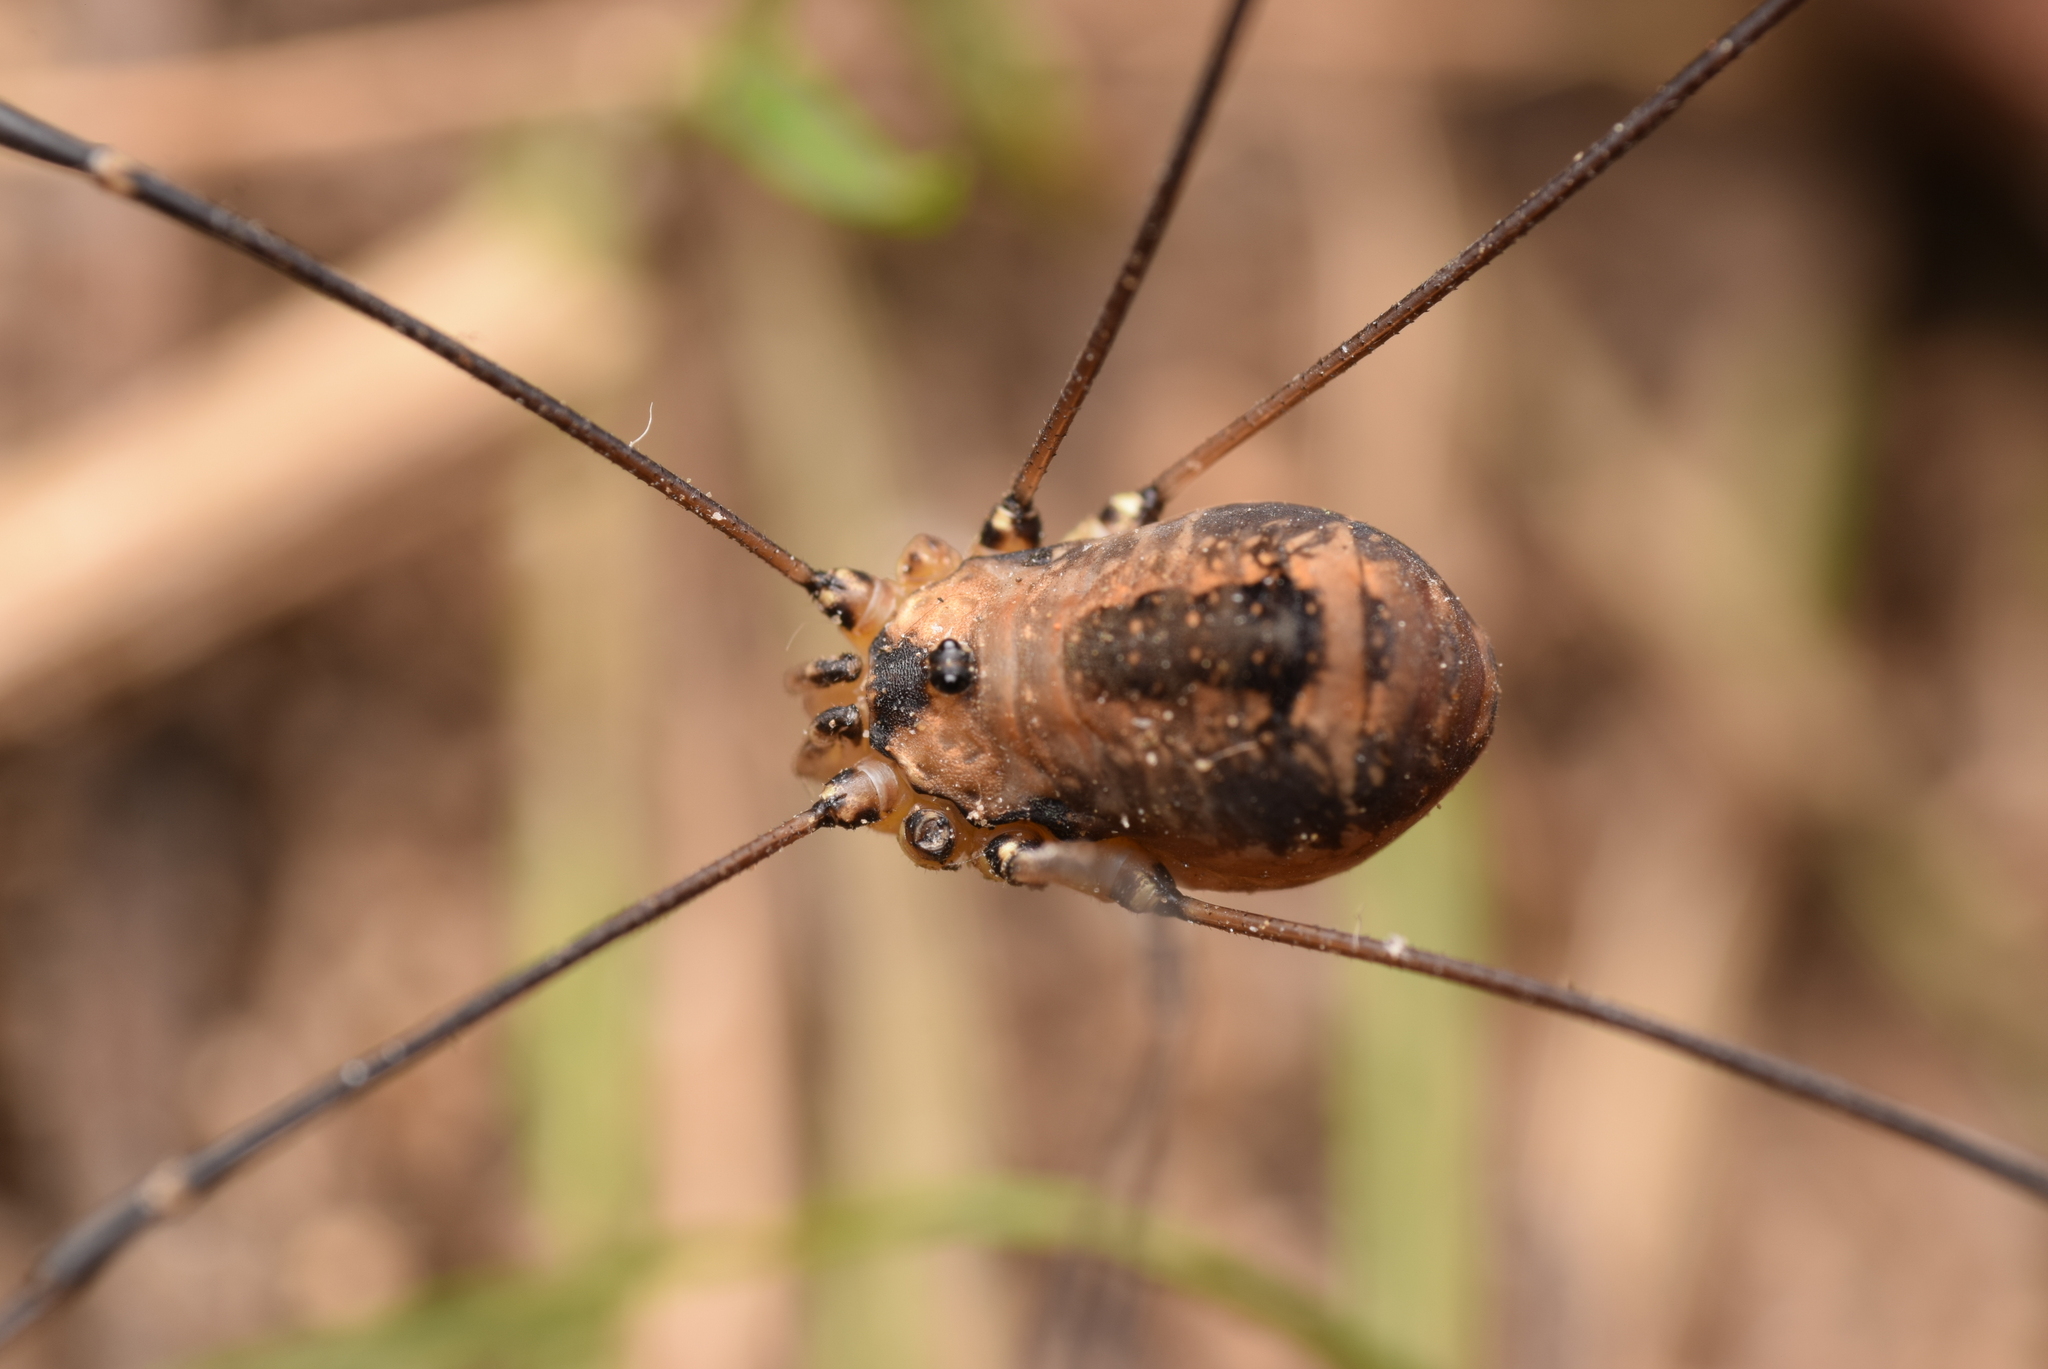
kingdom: Animalia
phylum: Arthropoda
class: Arachnida
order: Opiliones
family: Sclerosomatidae
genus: Leiobunum
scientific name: Leiobunum rotundum
